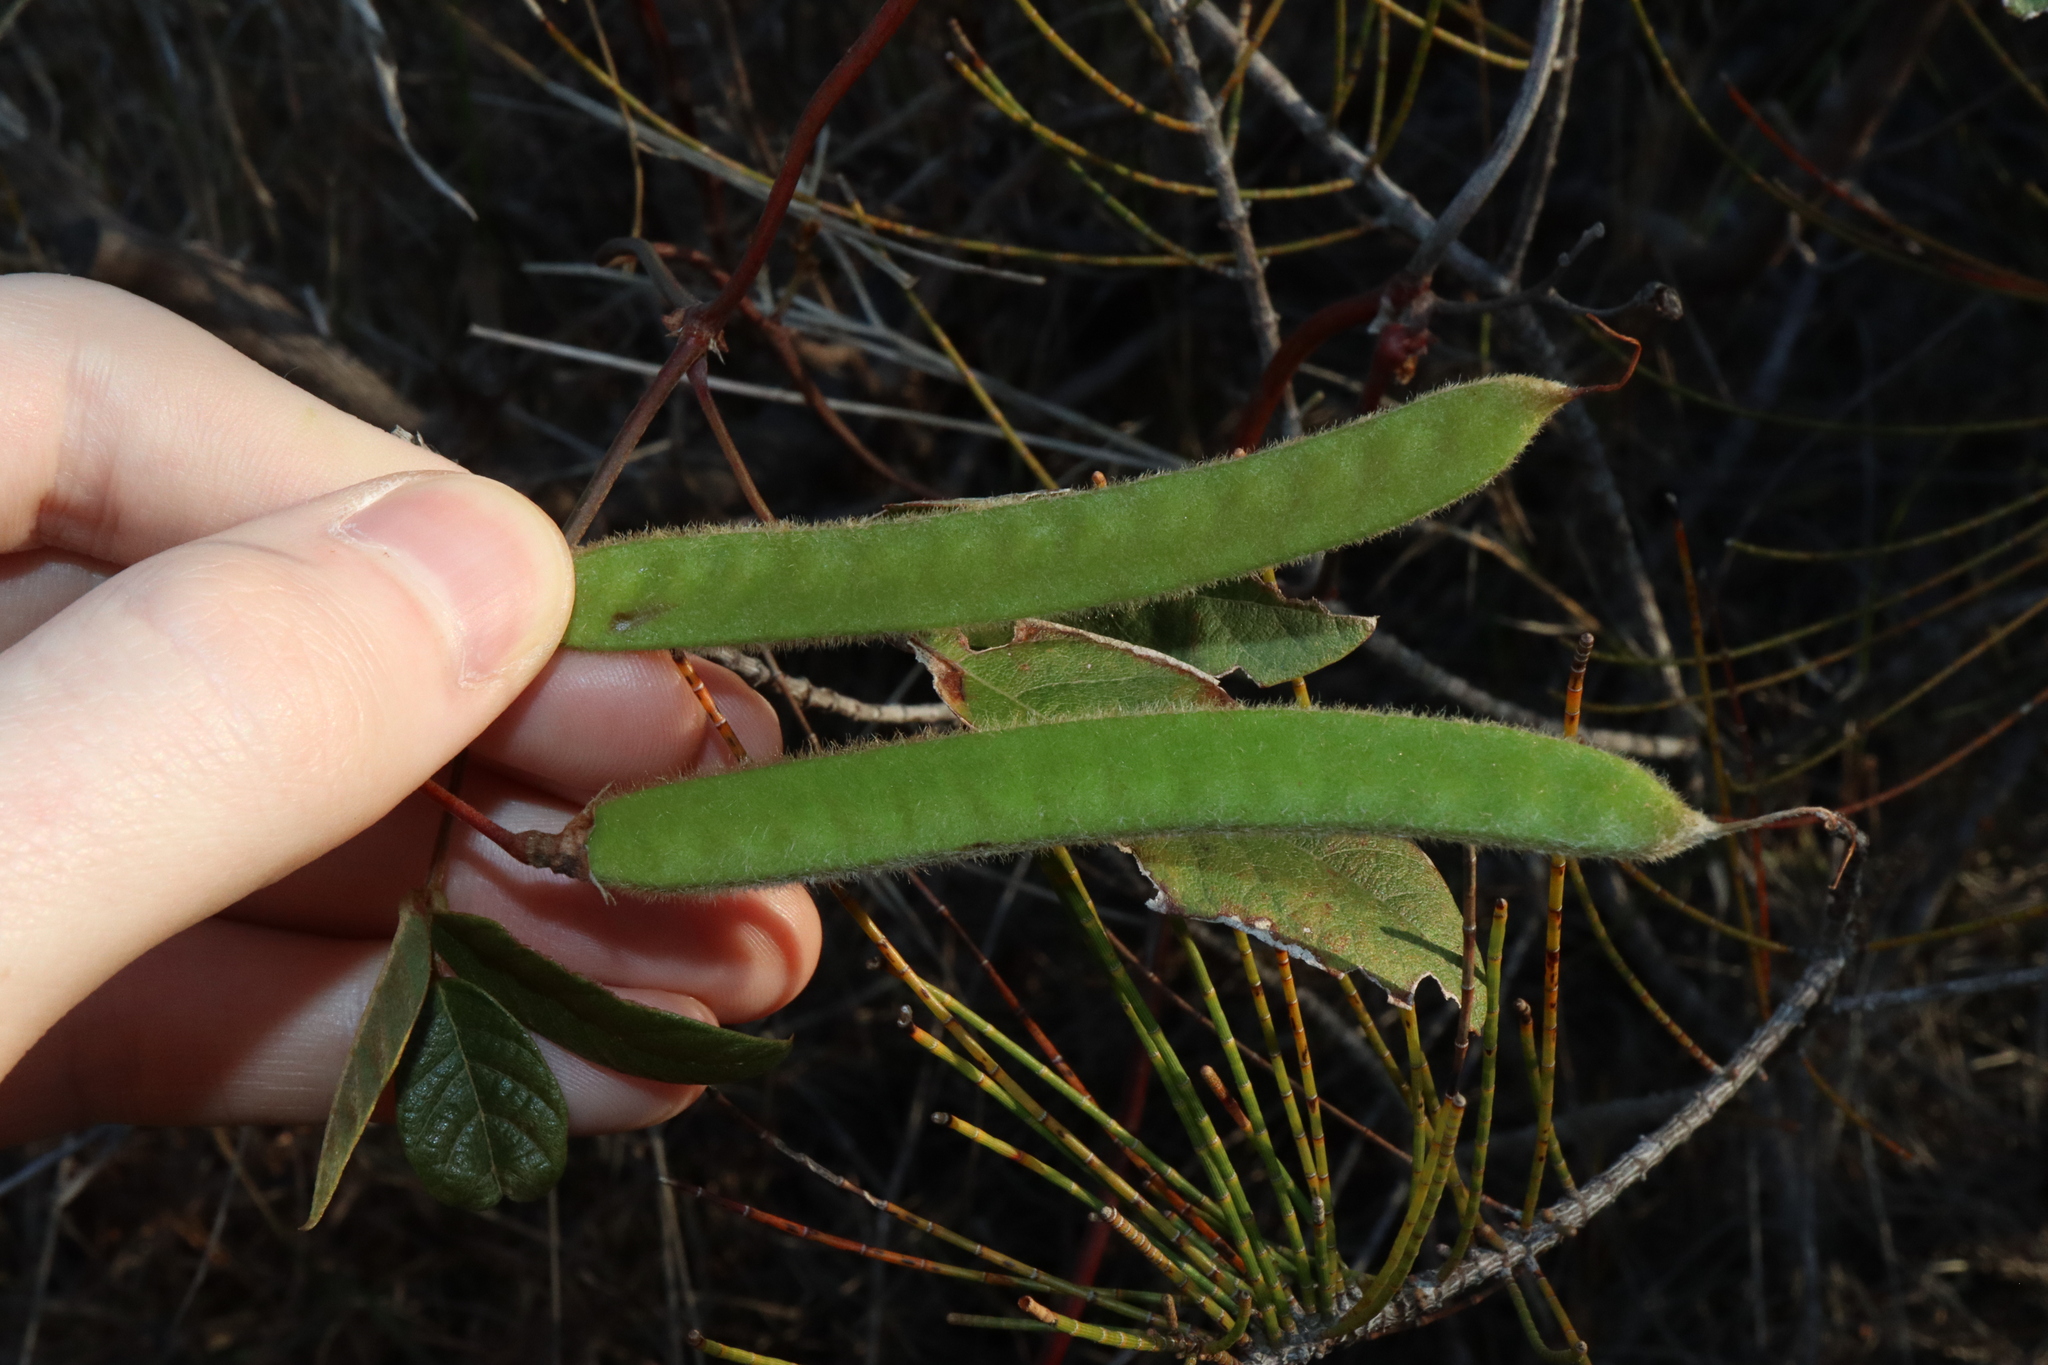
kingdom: Plantae
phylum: Tracheophyta
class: Magnoliopsida
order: Fabales
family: Fabaceae
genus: Kennedia
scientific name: Kennedia rubicunda
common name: Red kennedy-pea
